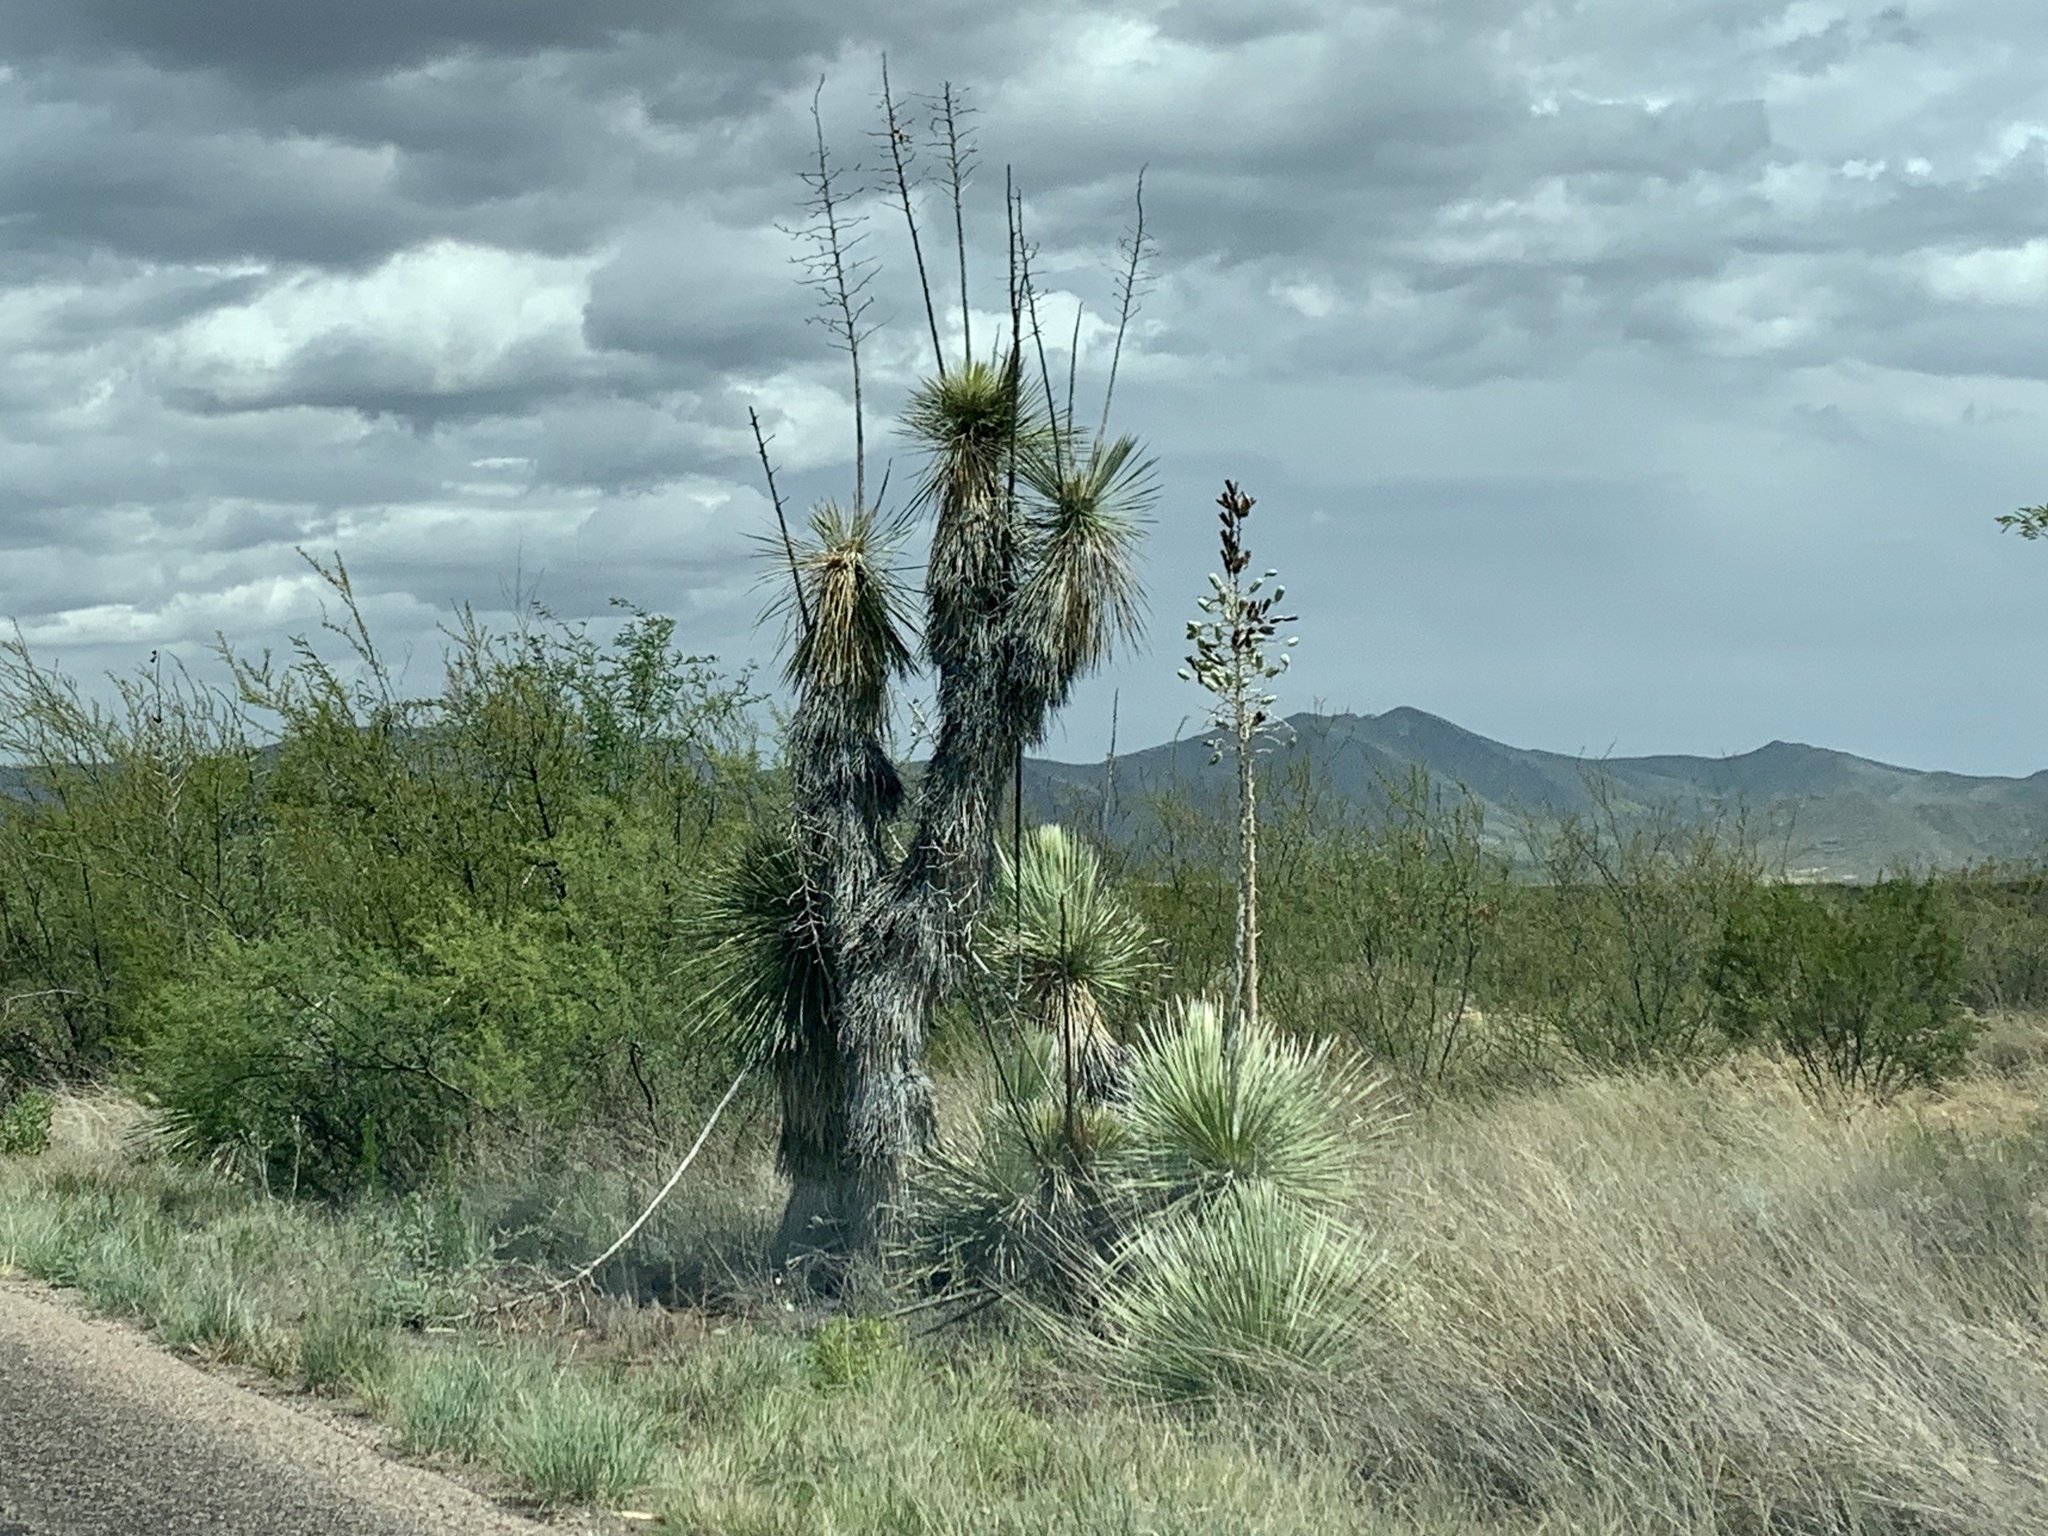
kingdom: Plantae
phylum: Tracheophyta
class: Liliopsida
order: Asparagales
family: Asparagaceae
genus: Yucca
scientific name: Yucca elata
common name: Palmella
